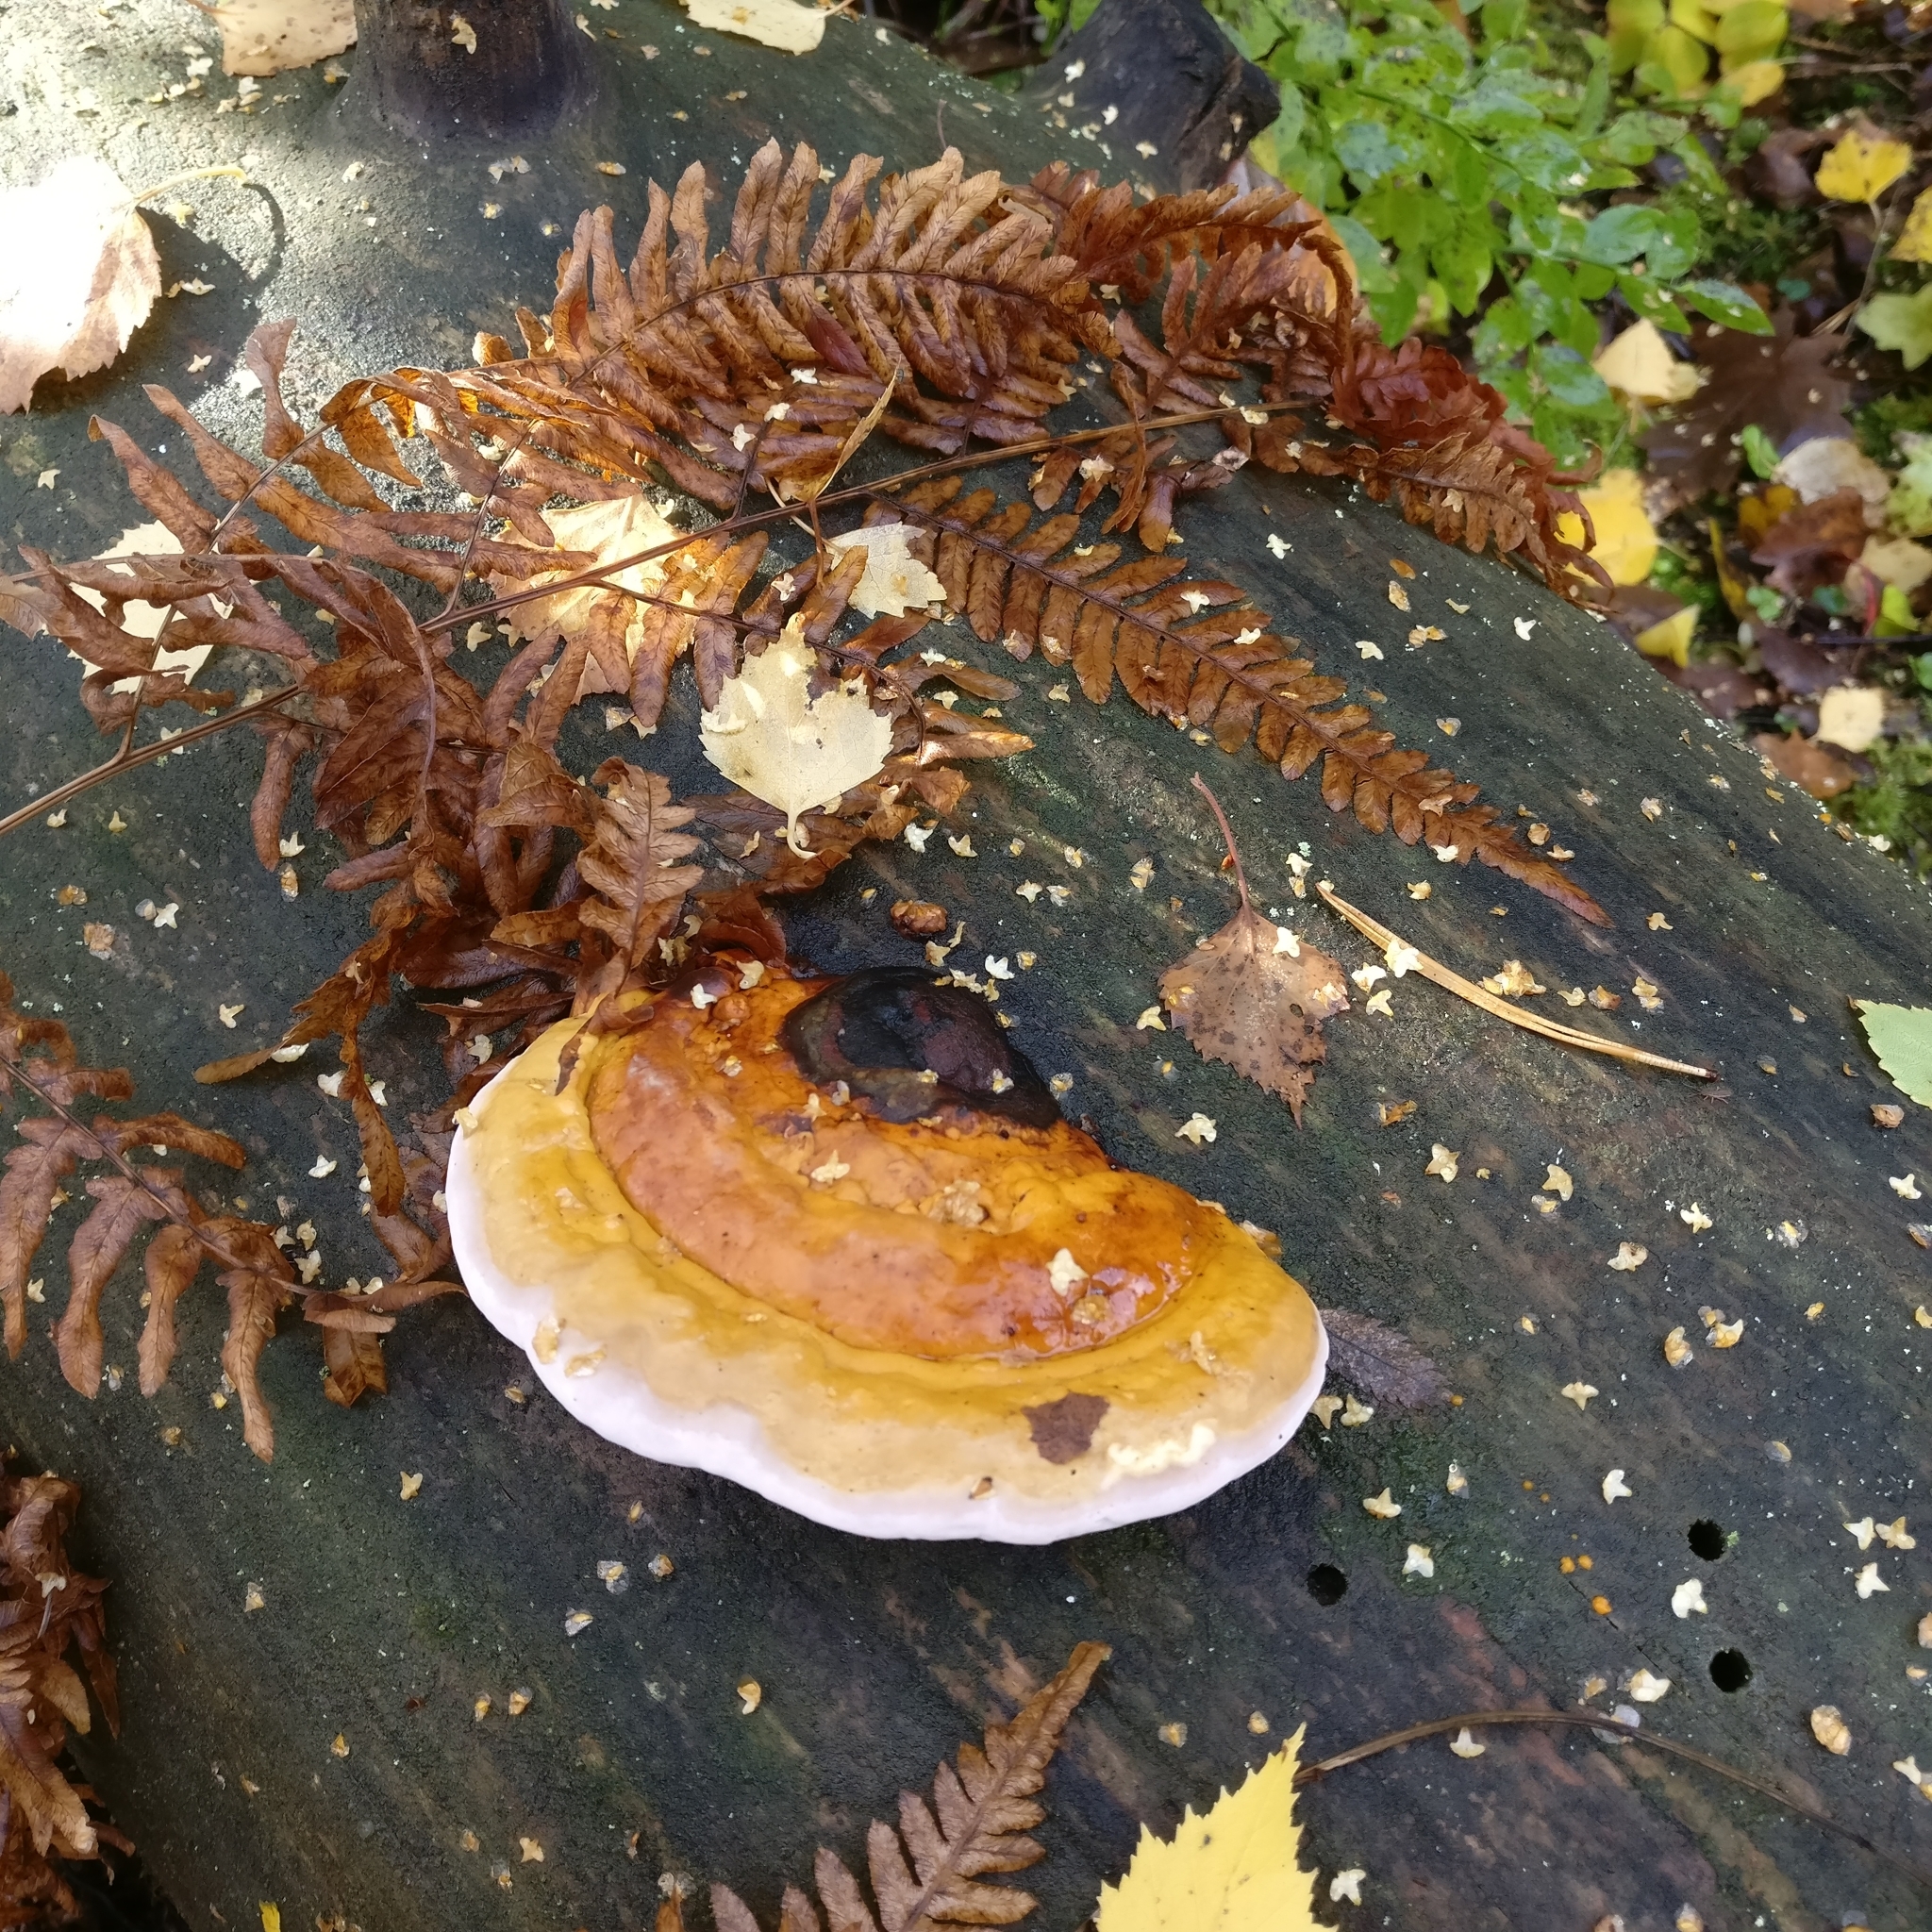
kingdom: Fungi
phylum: Basidiomycota
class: Agaricomycetes
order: Polyporales
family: Fomitopsidaceae
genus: Fomitopsis
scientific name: Fomitopsis pinicola
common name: Red-belted bracket
